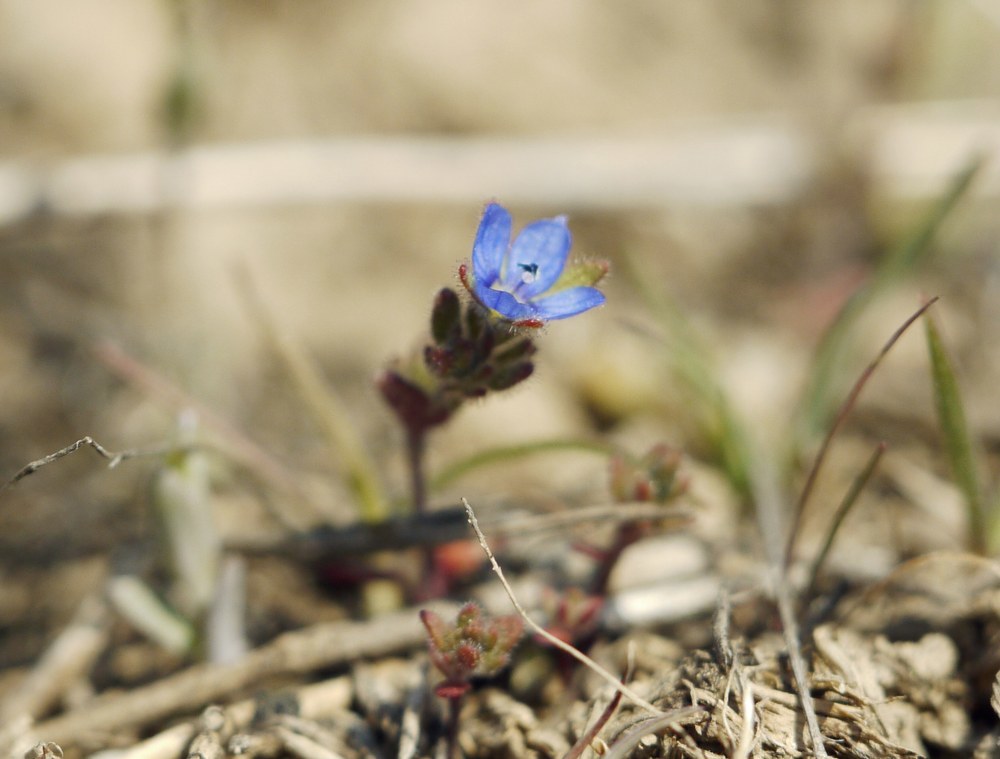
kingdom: Plantae
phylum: Tracheophyta
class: Magnoliopsida
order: Lamiales
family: Plantaginaceae
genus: Veronica
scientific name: Veronica triphyllos
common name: Fingered speedwell
